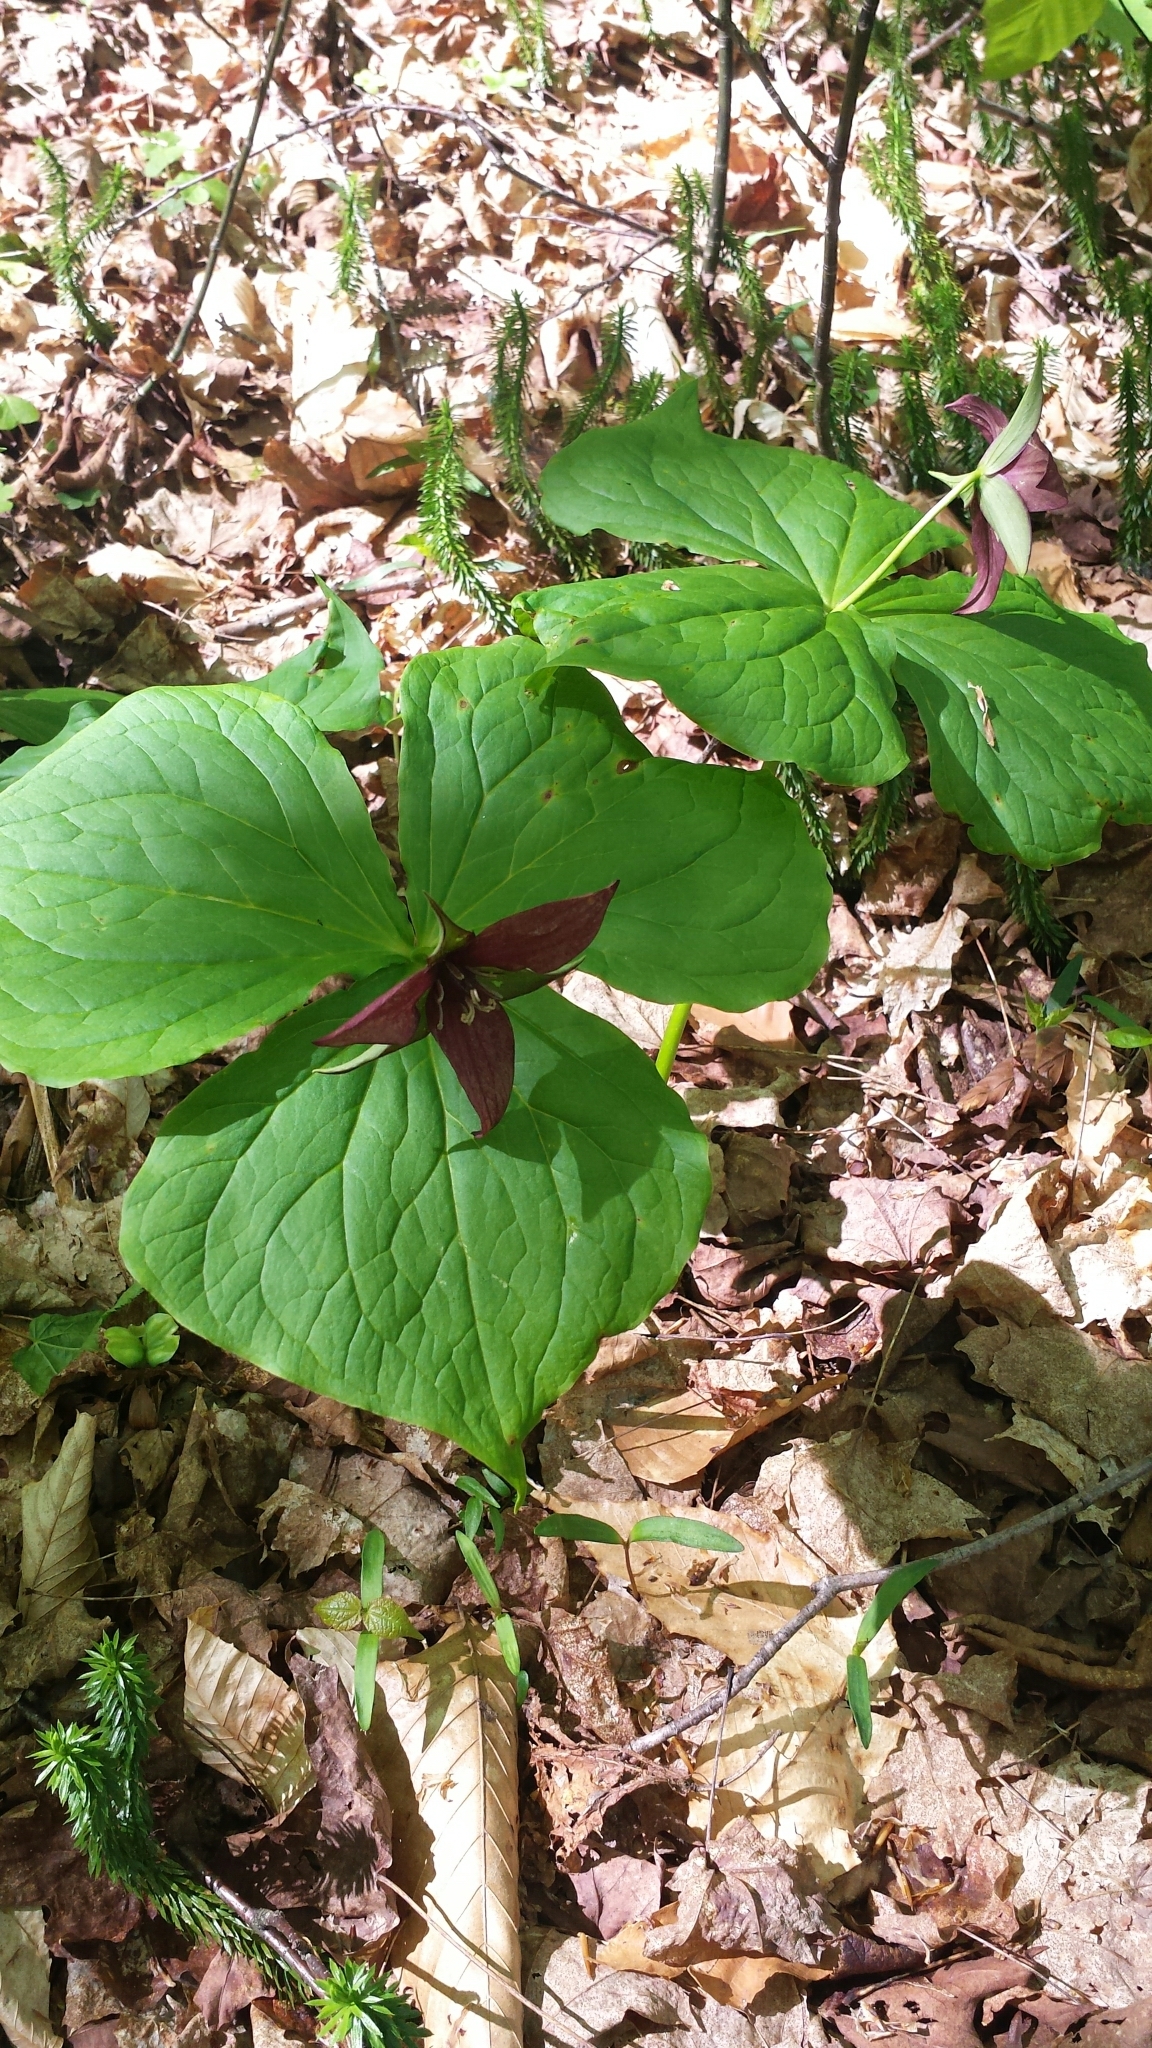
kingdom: Plantae
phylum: Tracheophyta
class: Liliopsida
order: Liliales
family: Melanthiaceae
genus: Trillium
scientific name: Trillium erectum
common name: Purple trillium
